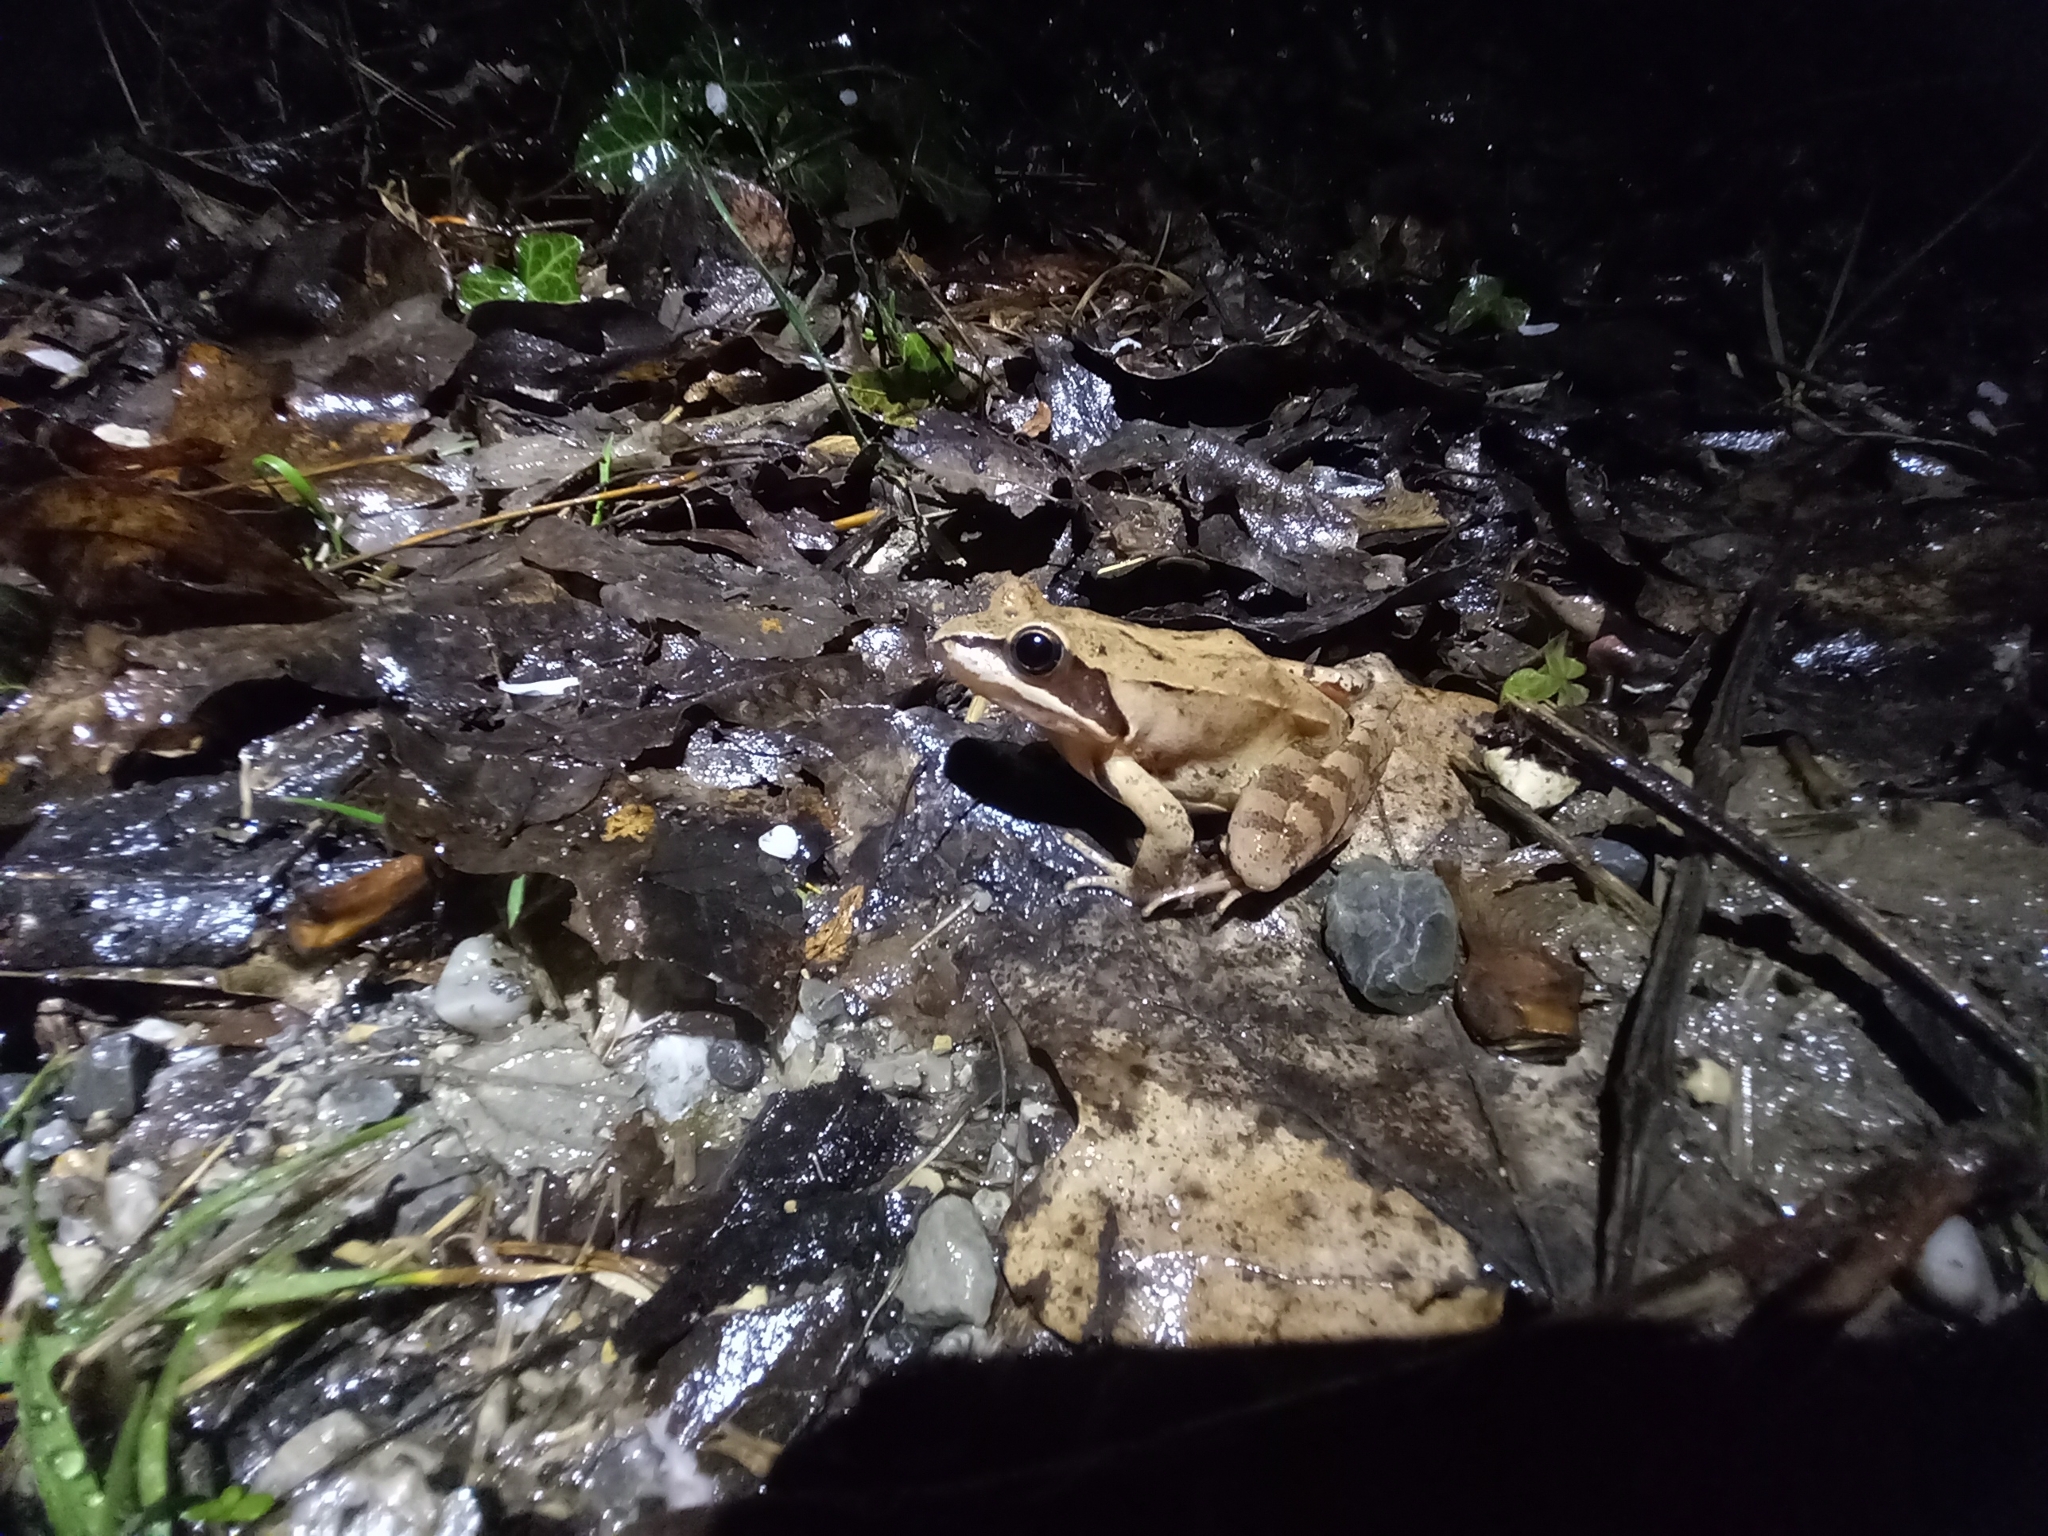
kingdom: Animalia
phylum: Chordata
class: Amphibia
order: Anura
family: Ranidae
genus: Rana
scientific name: Rana dalmatina
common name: Agile frog
